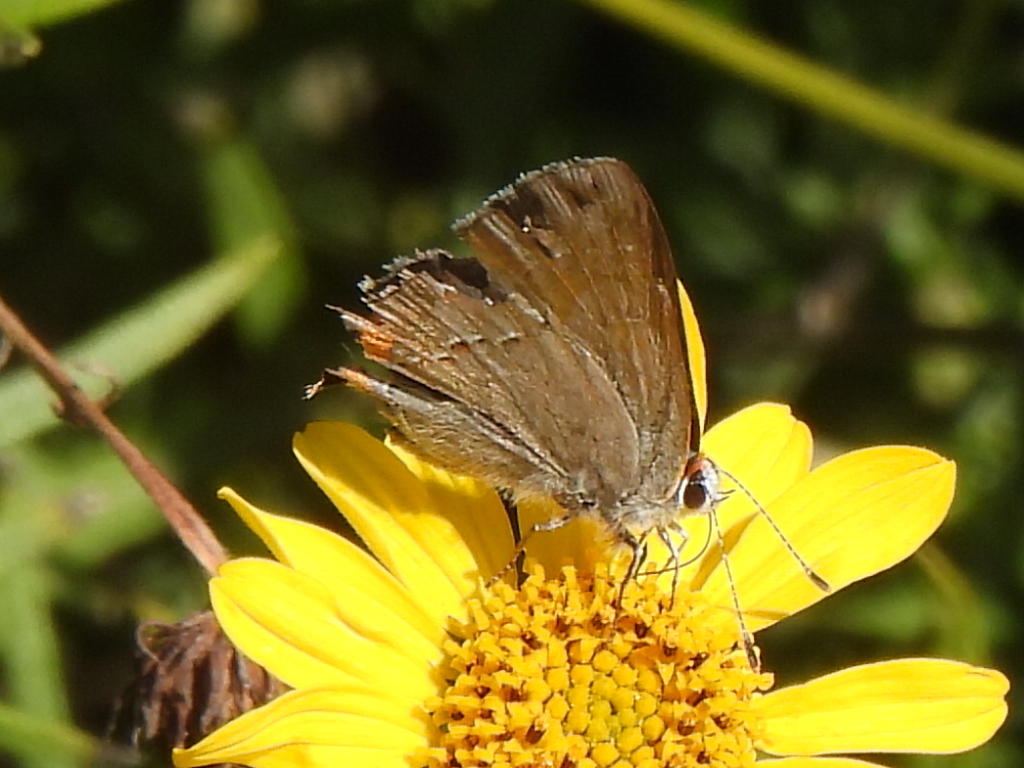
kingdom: Animalia
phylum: Arthropoda
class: Insecta
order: Lepidoptera
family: Lycaenidae
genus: Strymon
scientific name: Strymon melinus
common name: Gray hairstreak
